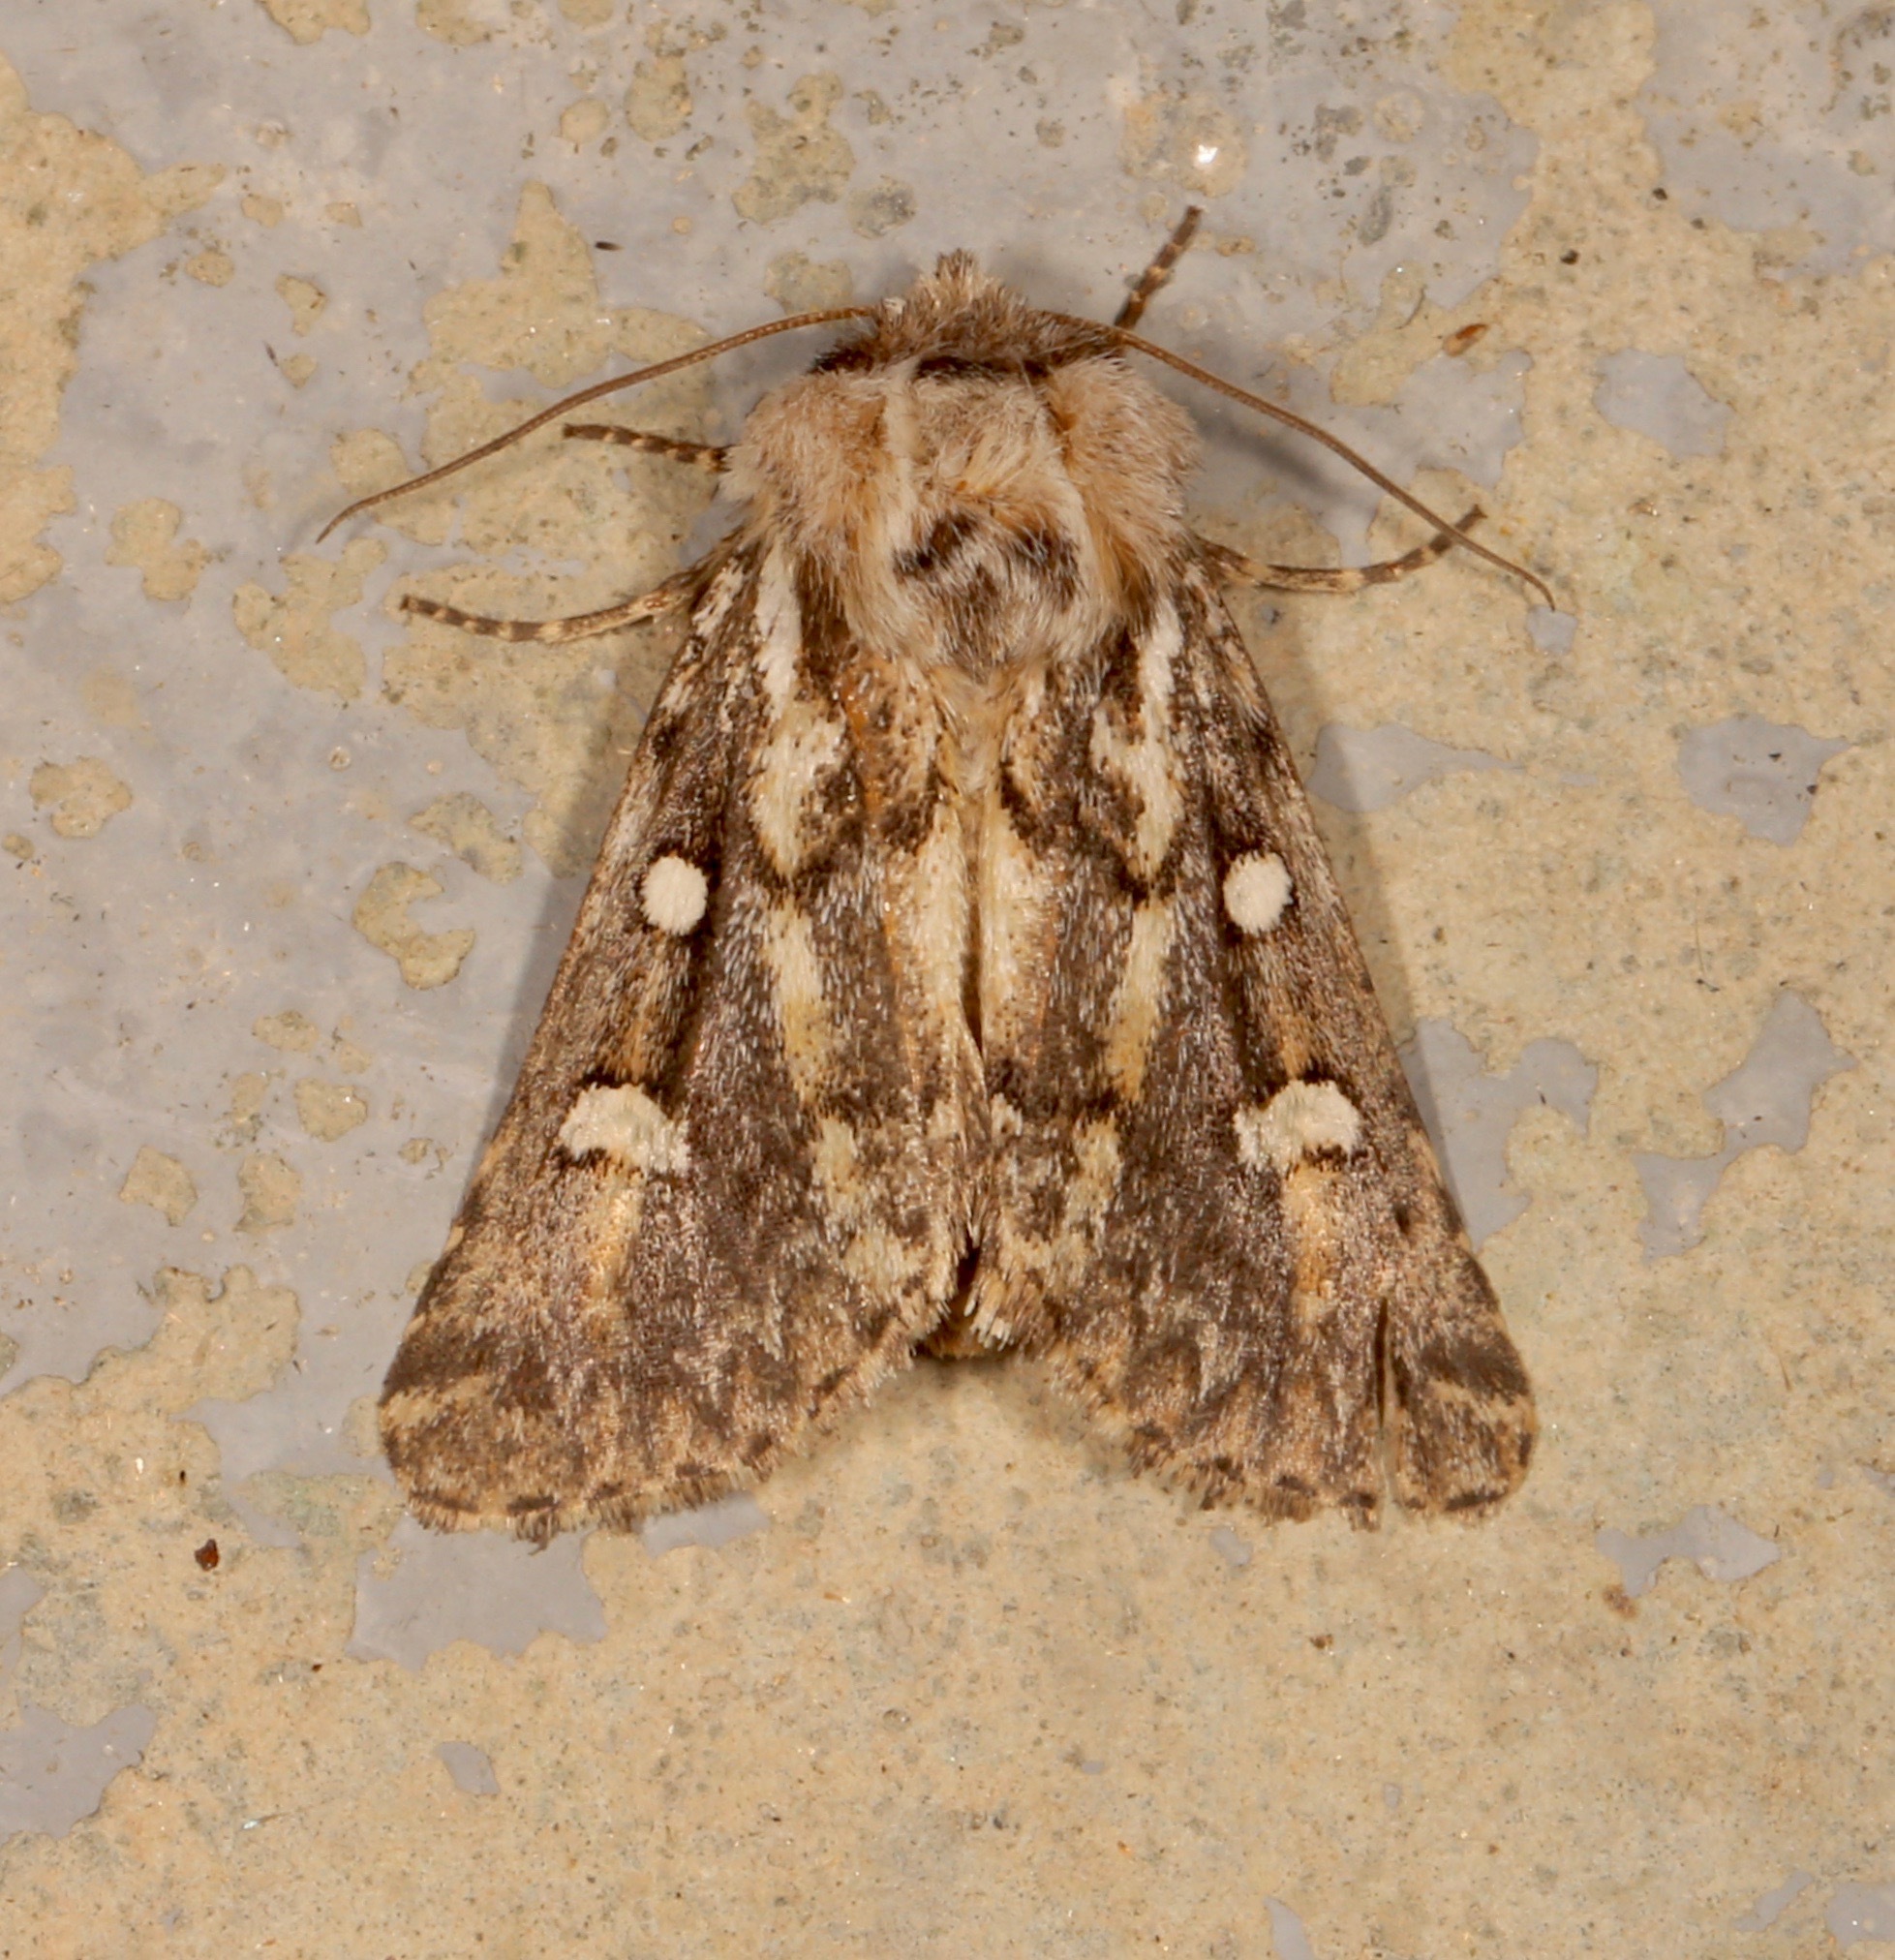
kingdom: Animalia
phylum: Arthropoda
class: Insecta
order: Lepidoptera
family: Noctuidae
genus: Fala
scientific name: Fala ptychophora
